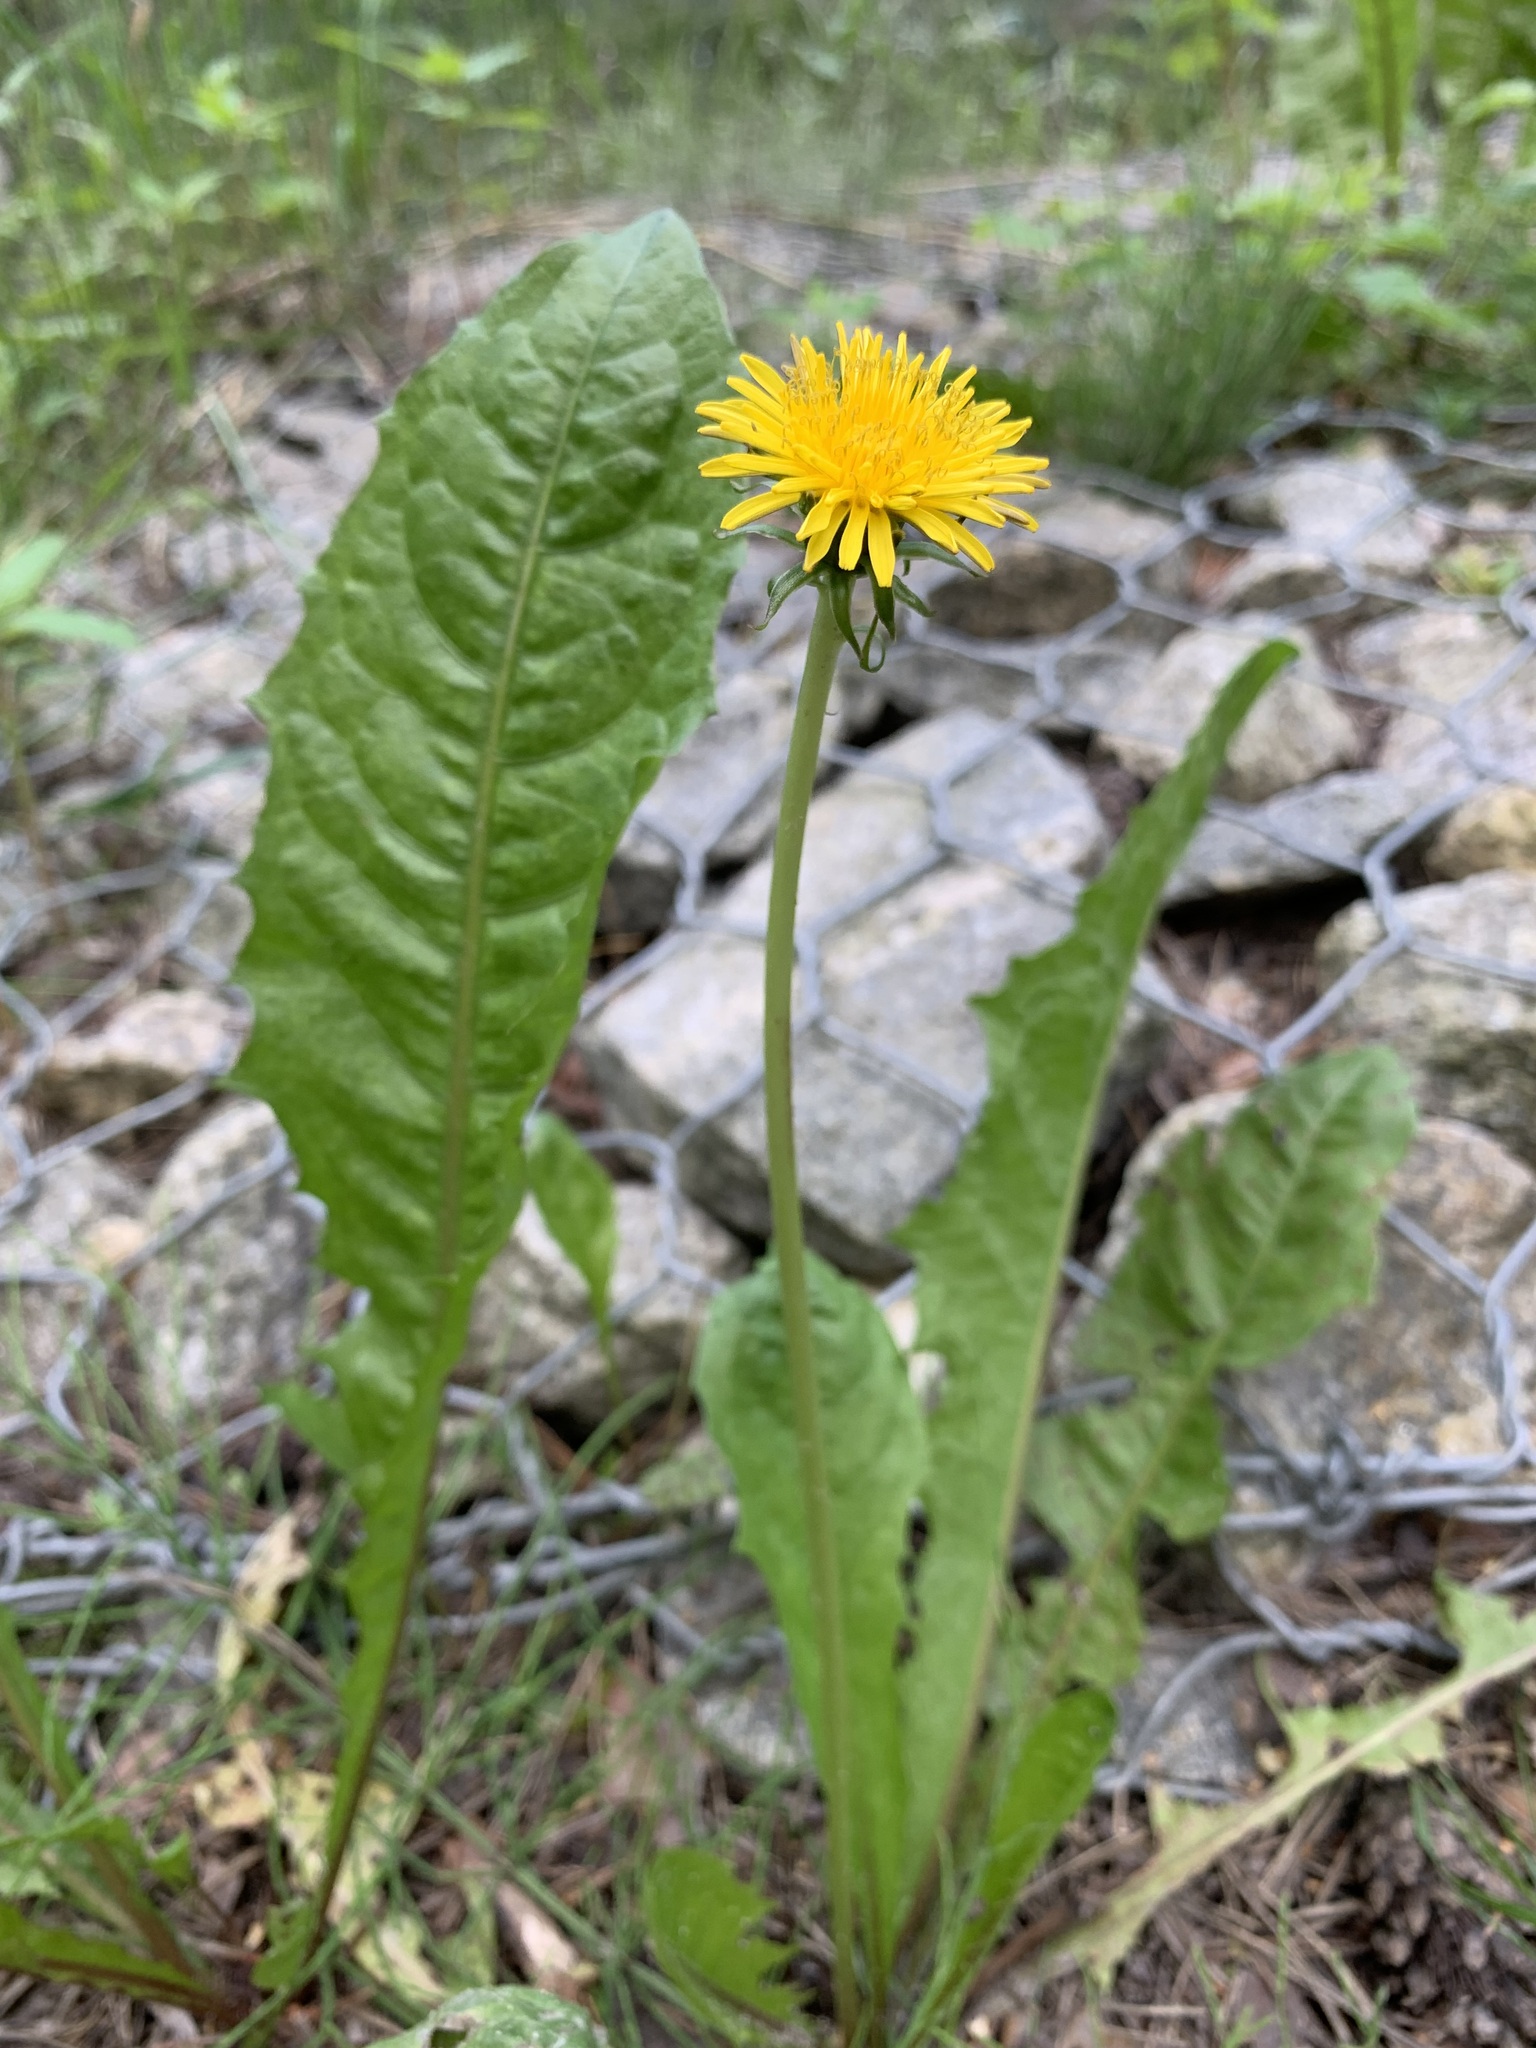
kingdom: Plantae
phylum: Tracheophyta
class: Magnoliopsida
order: Asterales
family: Asteraceae
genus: Taraxacum
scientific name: Taraxacum officinale
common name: Common dandelion
